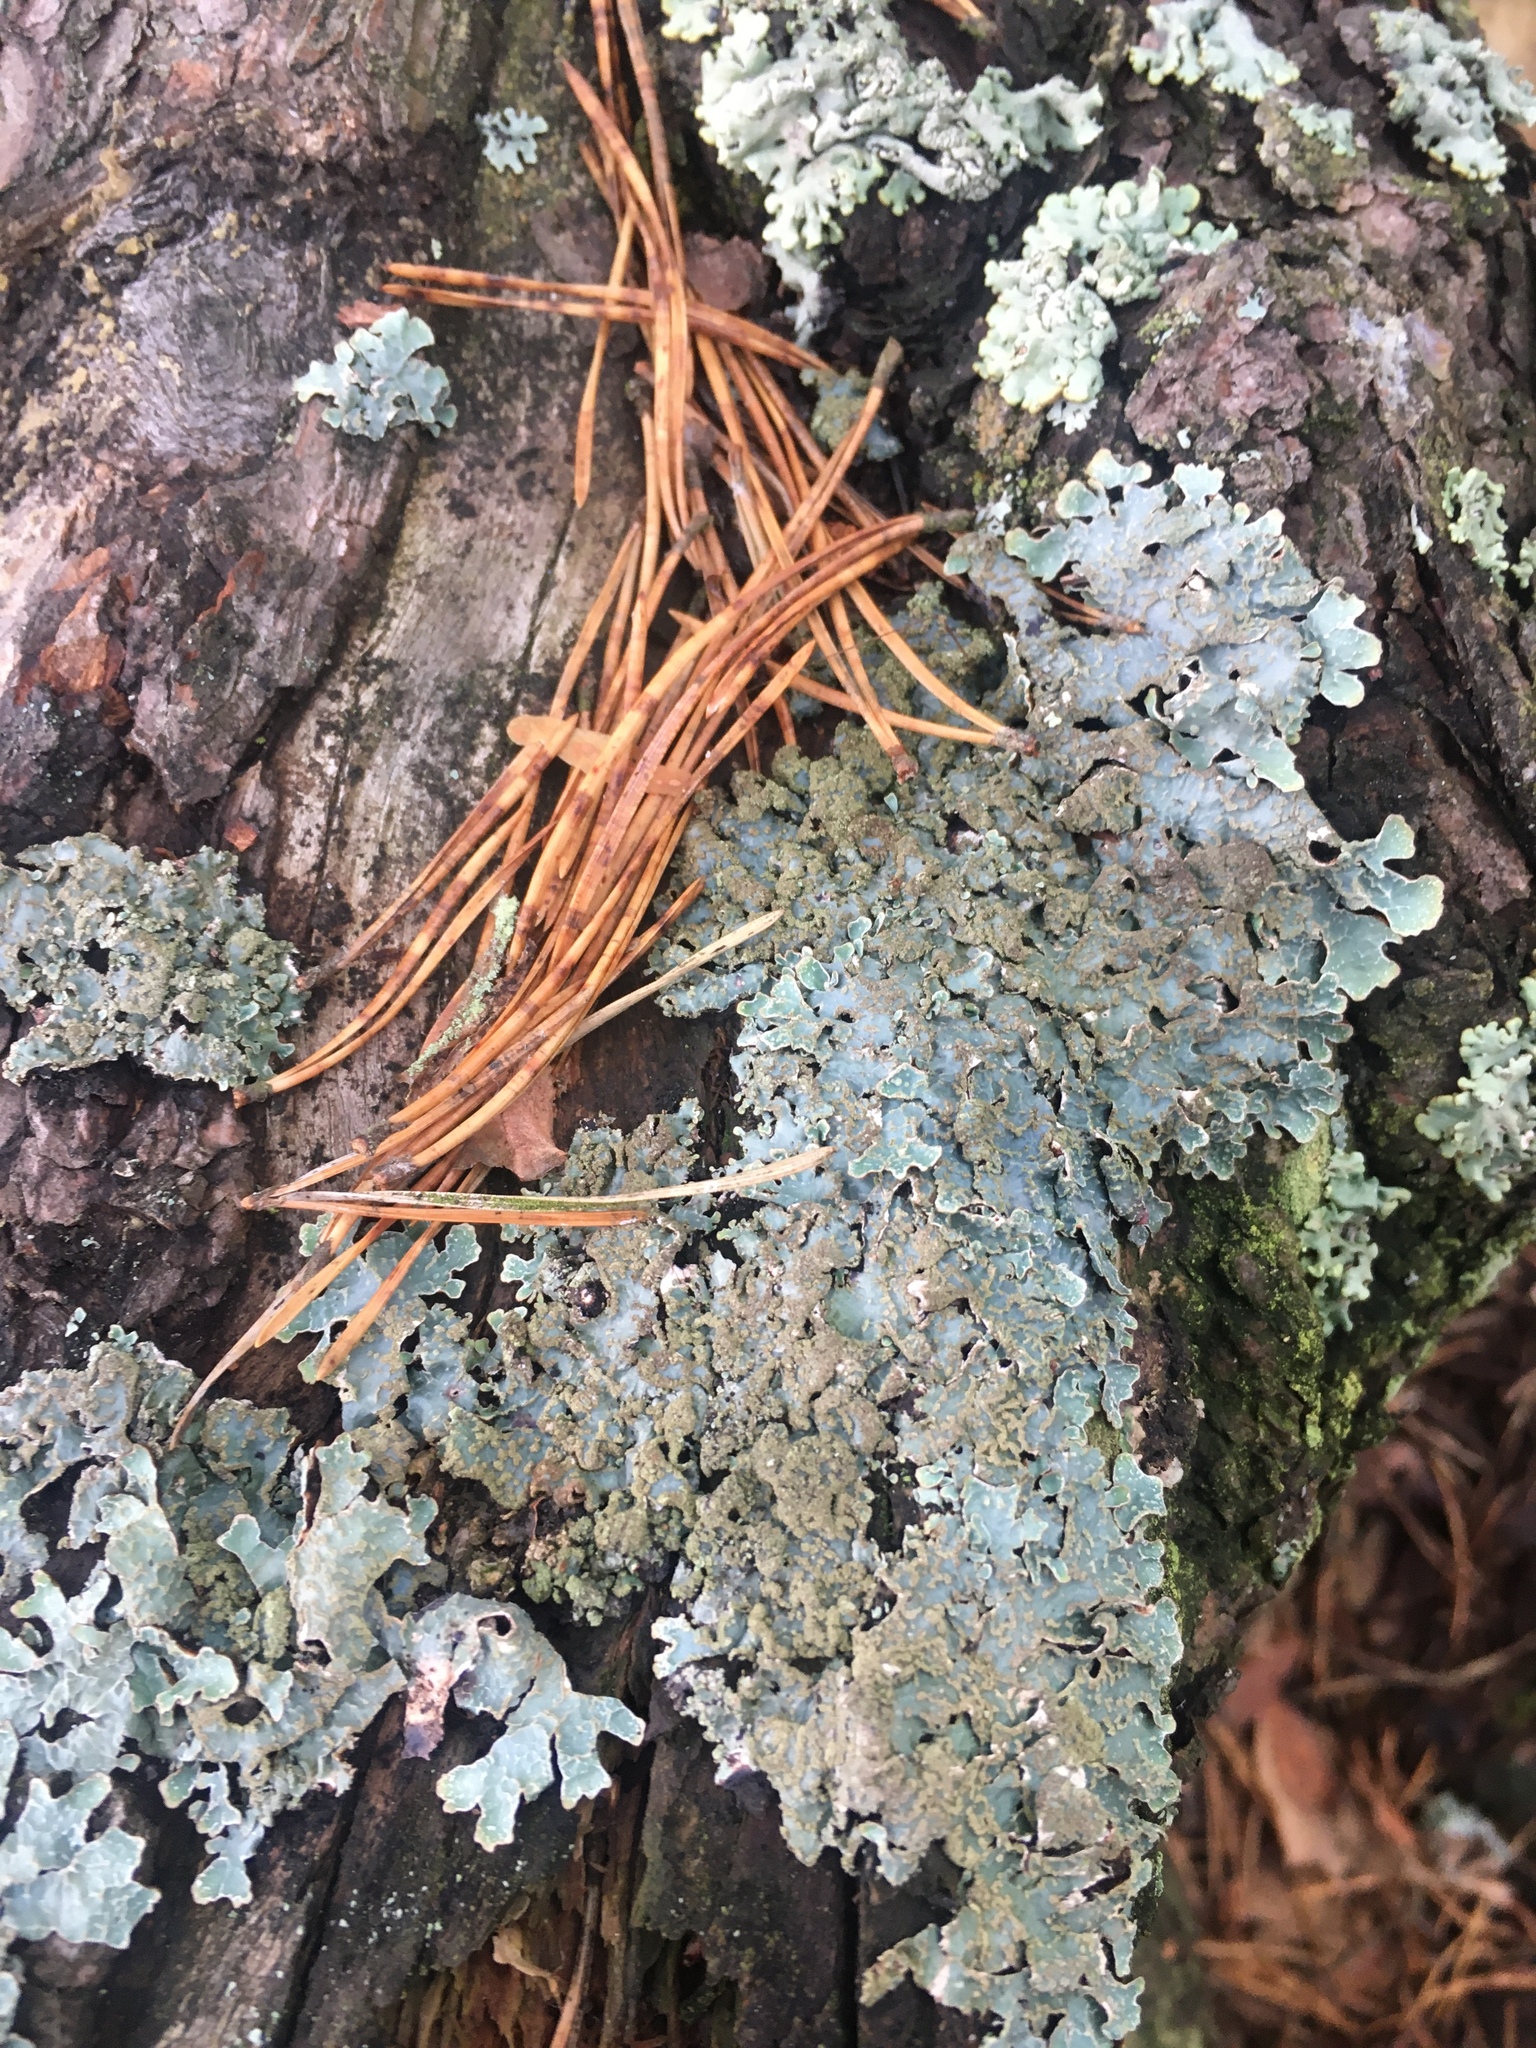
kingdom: Fungi
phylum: Ascomycota
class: Lecanoromycetes
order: Lecanorales
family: Parmeliaceae
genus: Parmelia
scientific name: Parmelia sulcata
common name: Netted shield lichen
